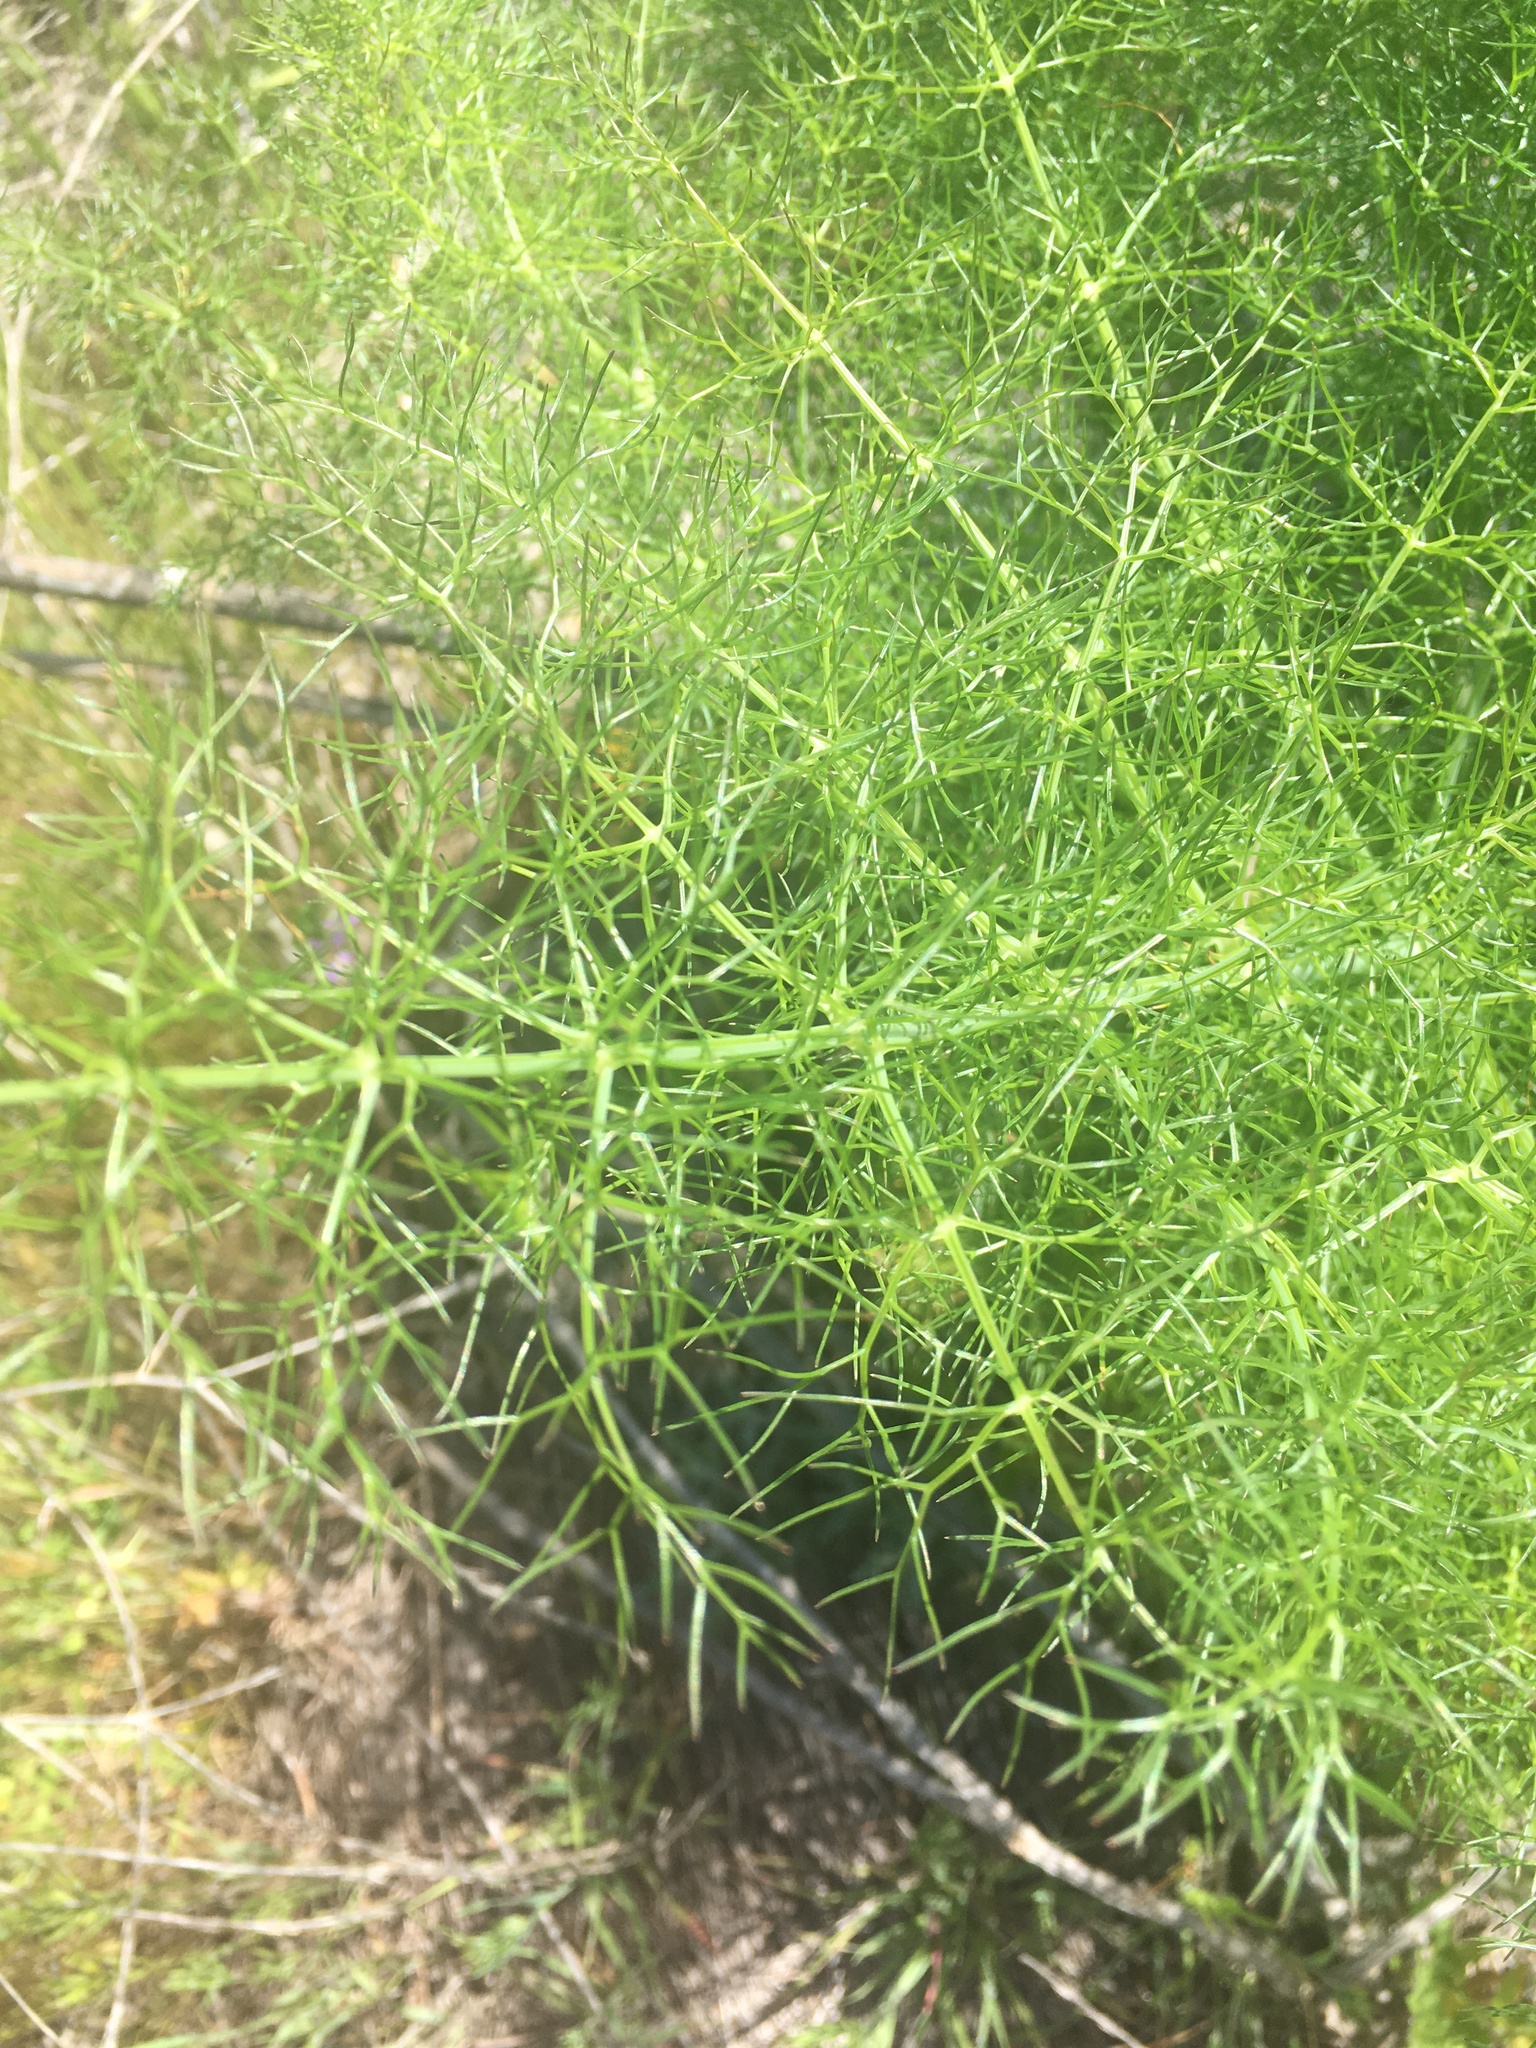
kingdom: Plantae
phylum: Tracheophyta
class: Magnoliopsida
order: Apiales
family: Apiaceae
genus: Foeniculum
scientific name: Foeniculum vulgare
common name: Fennel
